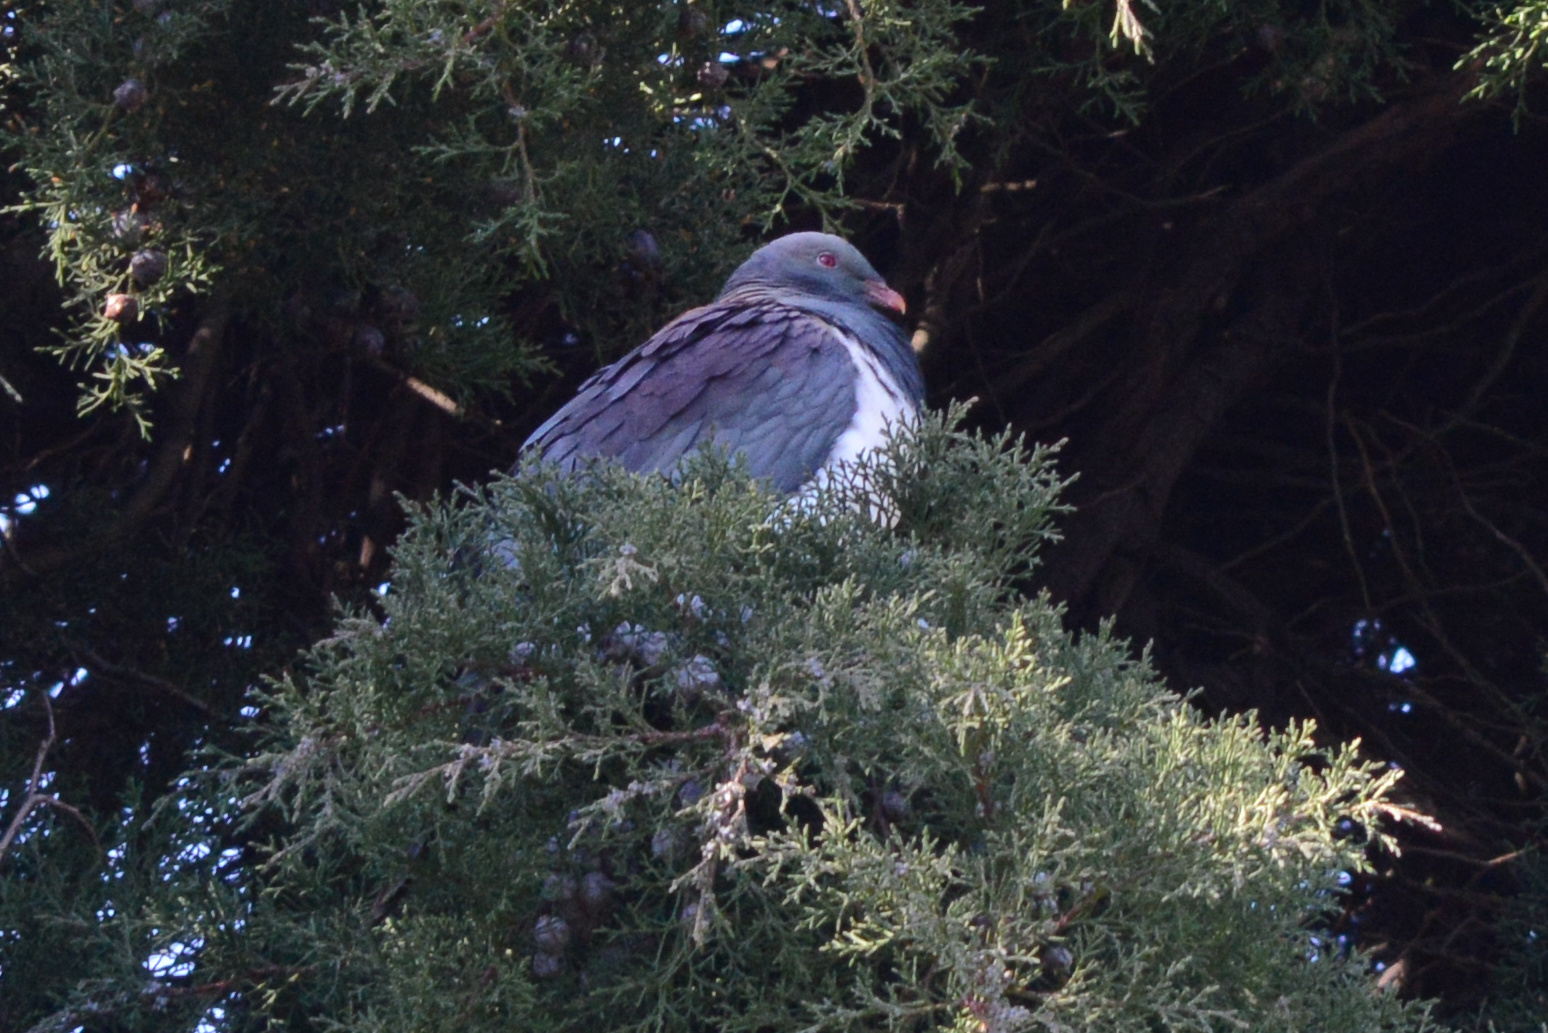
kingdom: Animalia
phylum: Chordata
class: Aves
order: Columbiformes
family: Columbidae
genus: Hemiphaga
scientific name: Hemiphaga novaeseelandiae
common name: New zealand pigeon
